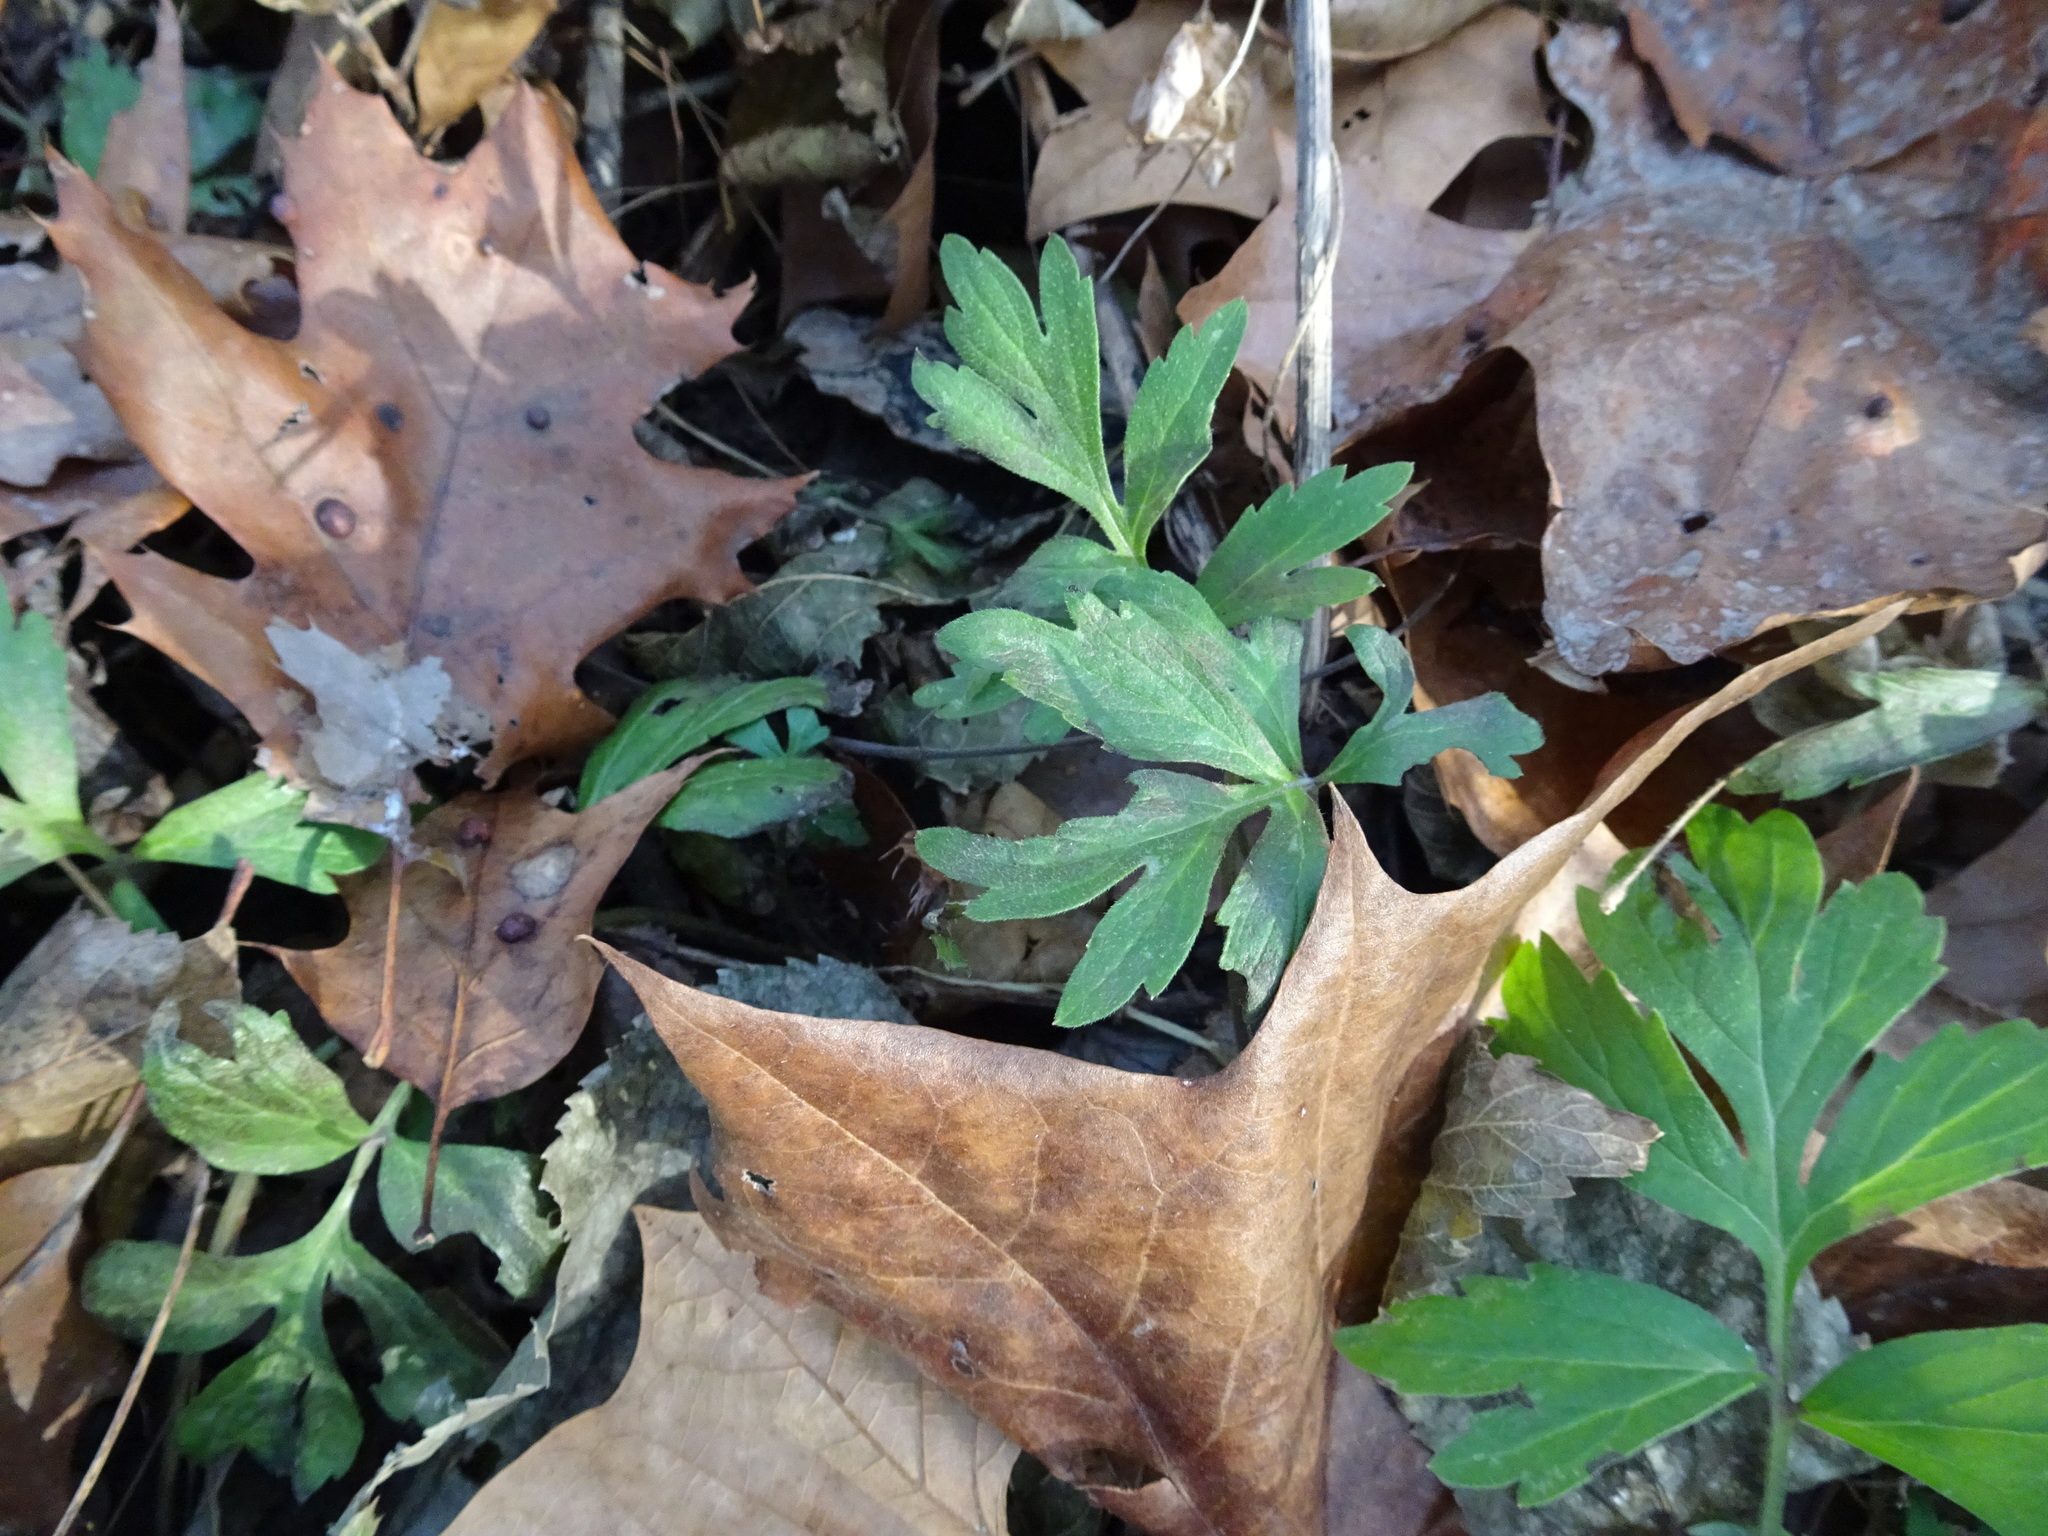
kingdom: Plantae
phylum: Tracheophyta
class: Magnoliopsida
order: Boraginales
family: Hydrophyllaceae
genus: Hydrophyllum
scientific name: Hydrophyllum virginianum
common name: Virginia waterleaf
